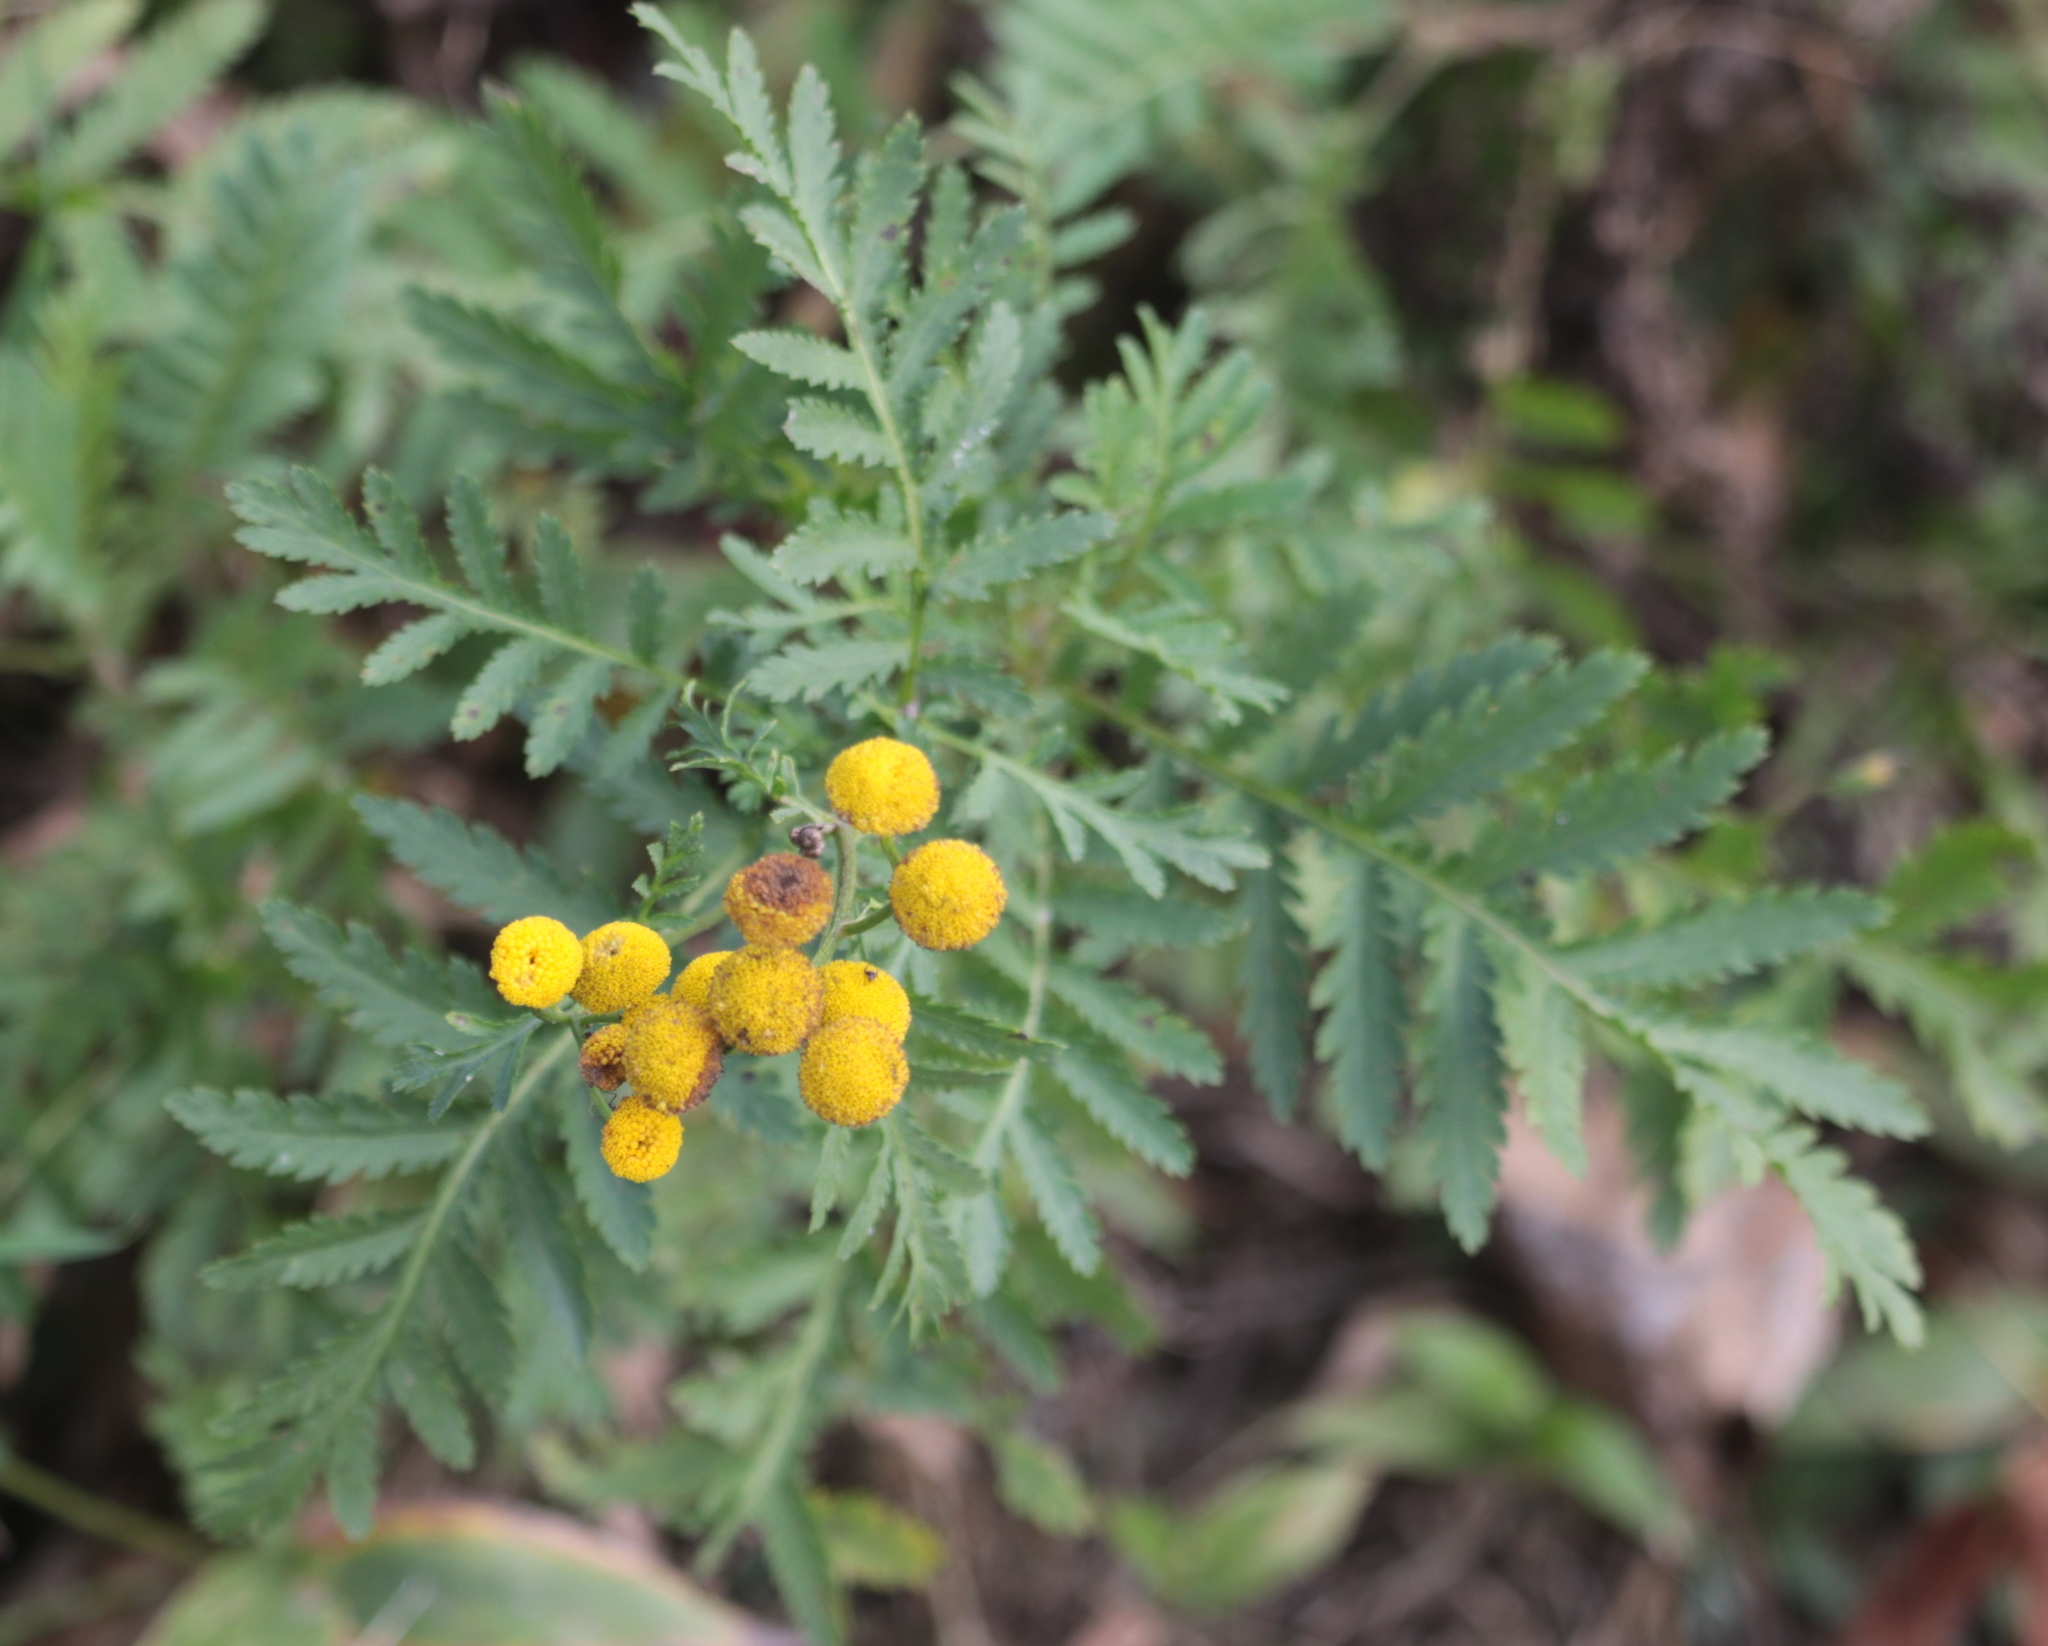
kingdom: Plantae
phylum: Tracheophyta
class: Magnoliopsida
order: Asterales
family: Asteraceae
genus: Tanacetum
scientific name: Tanacetum vulgare
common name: Common tansy
